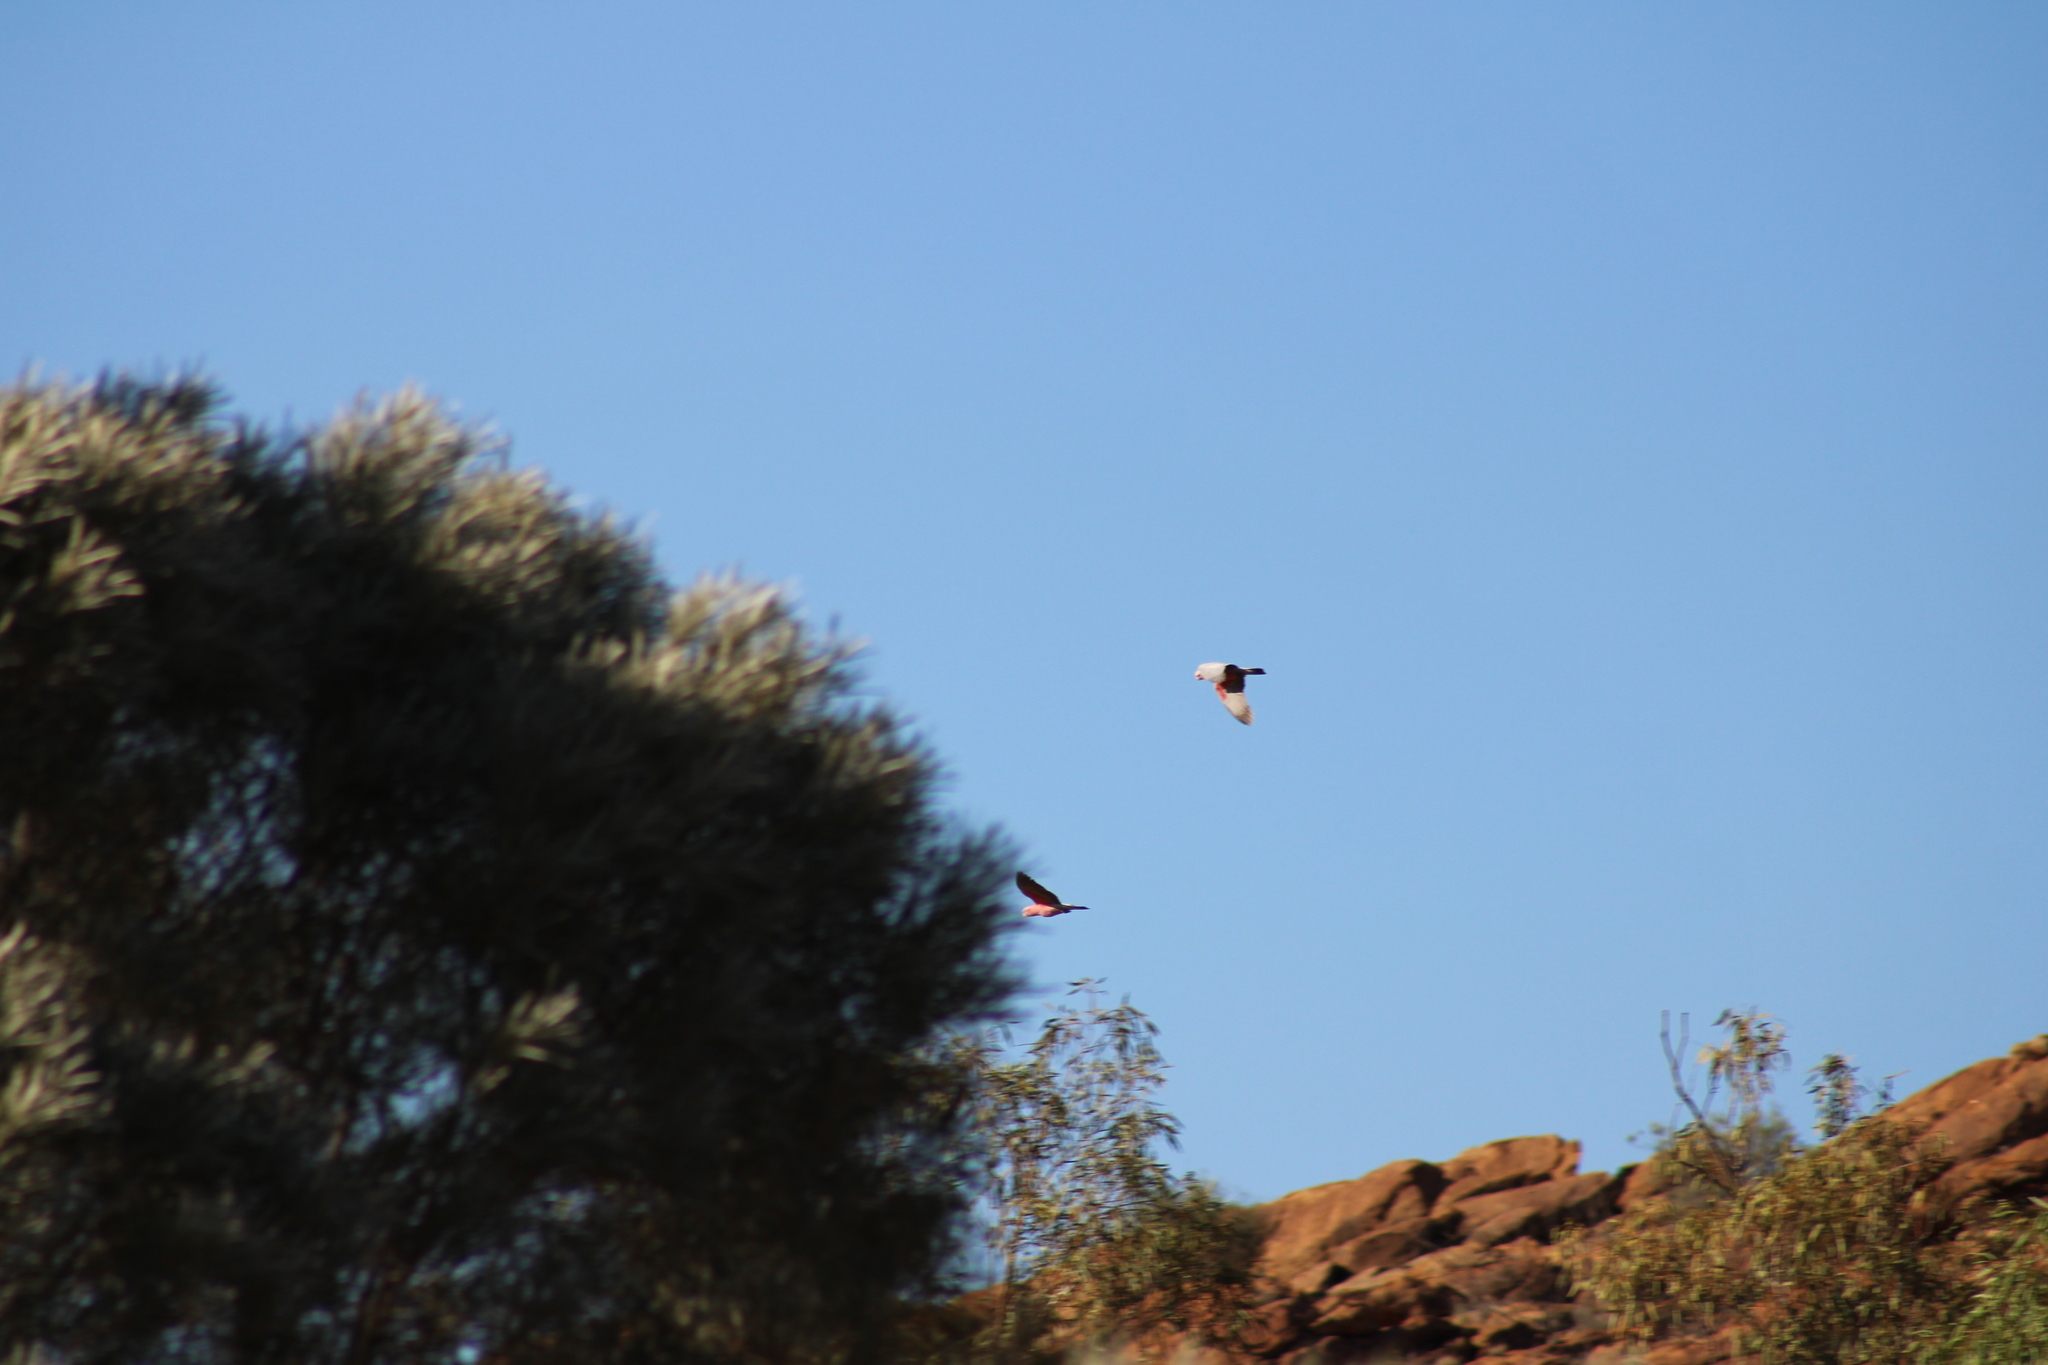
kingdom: Animalia
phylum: Chordata
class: Aves
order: Psittaciformes
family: Psittacidae
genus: Eolophus
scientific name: Eolophus roseicapilla
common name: Galah
